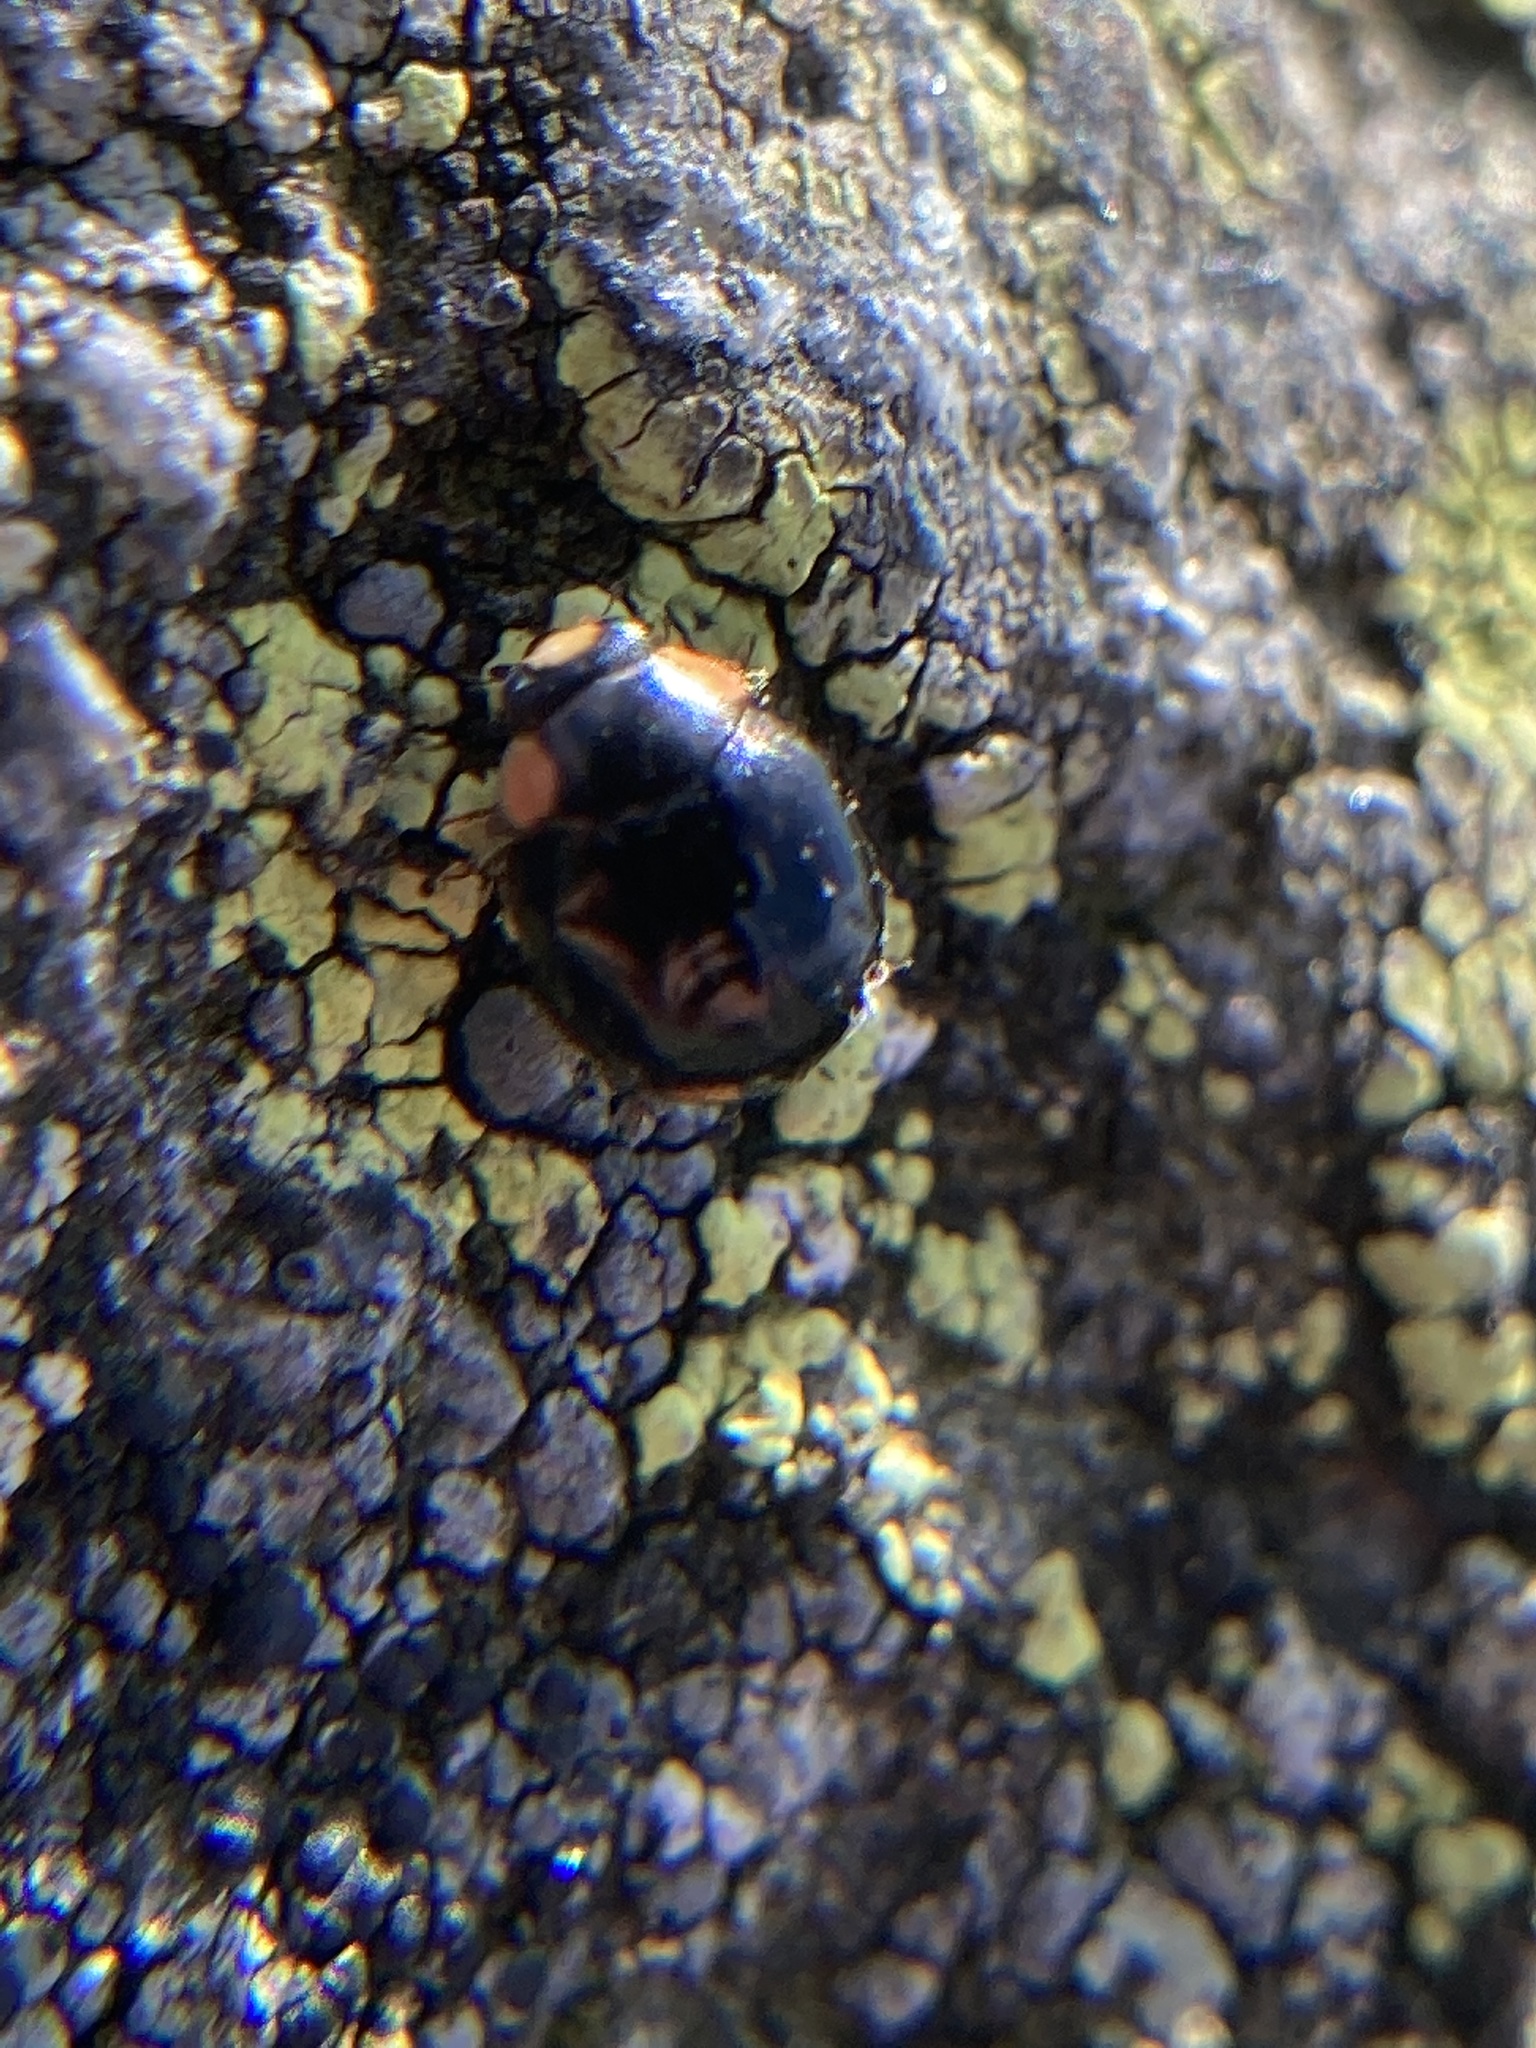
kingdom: Animalia
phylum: Arthropoda
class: Insecta
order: Coleoptera
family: Coccinellidae
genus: Hyperaspis
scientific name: Hyperaspis bigeminata
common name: Bigeminate sigil lady beetle
